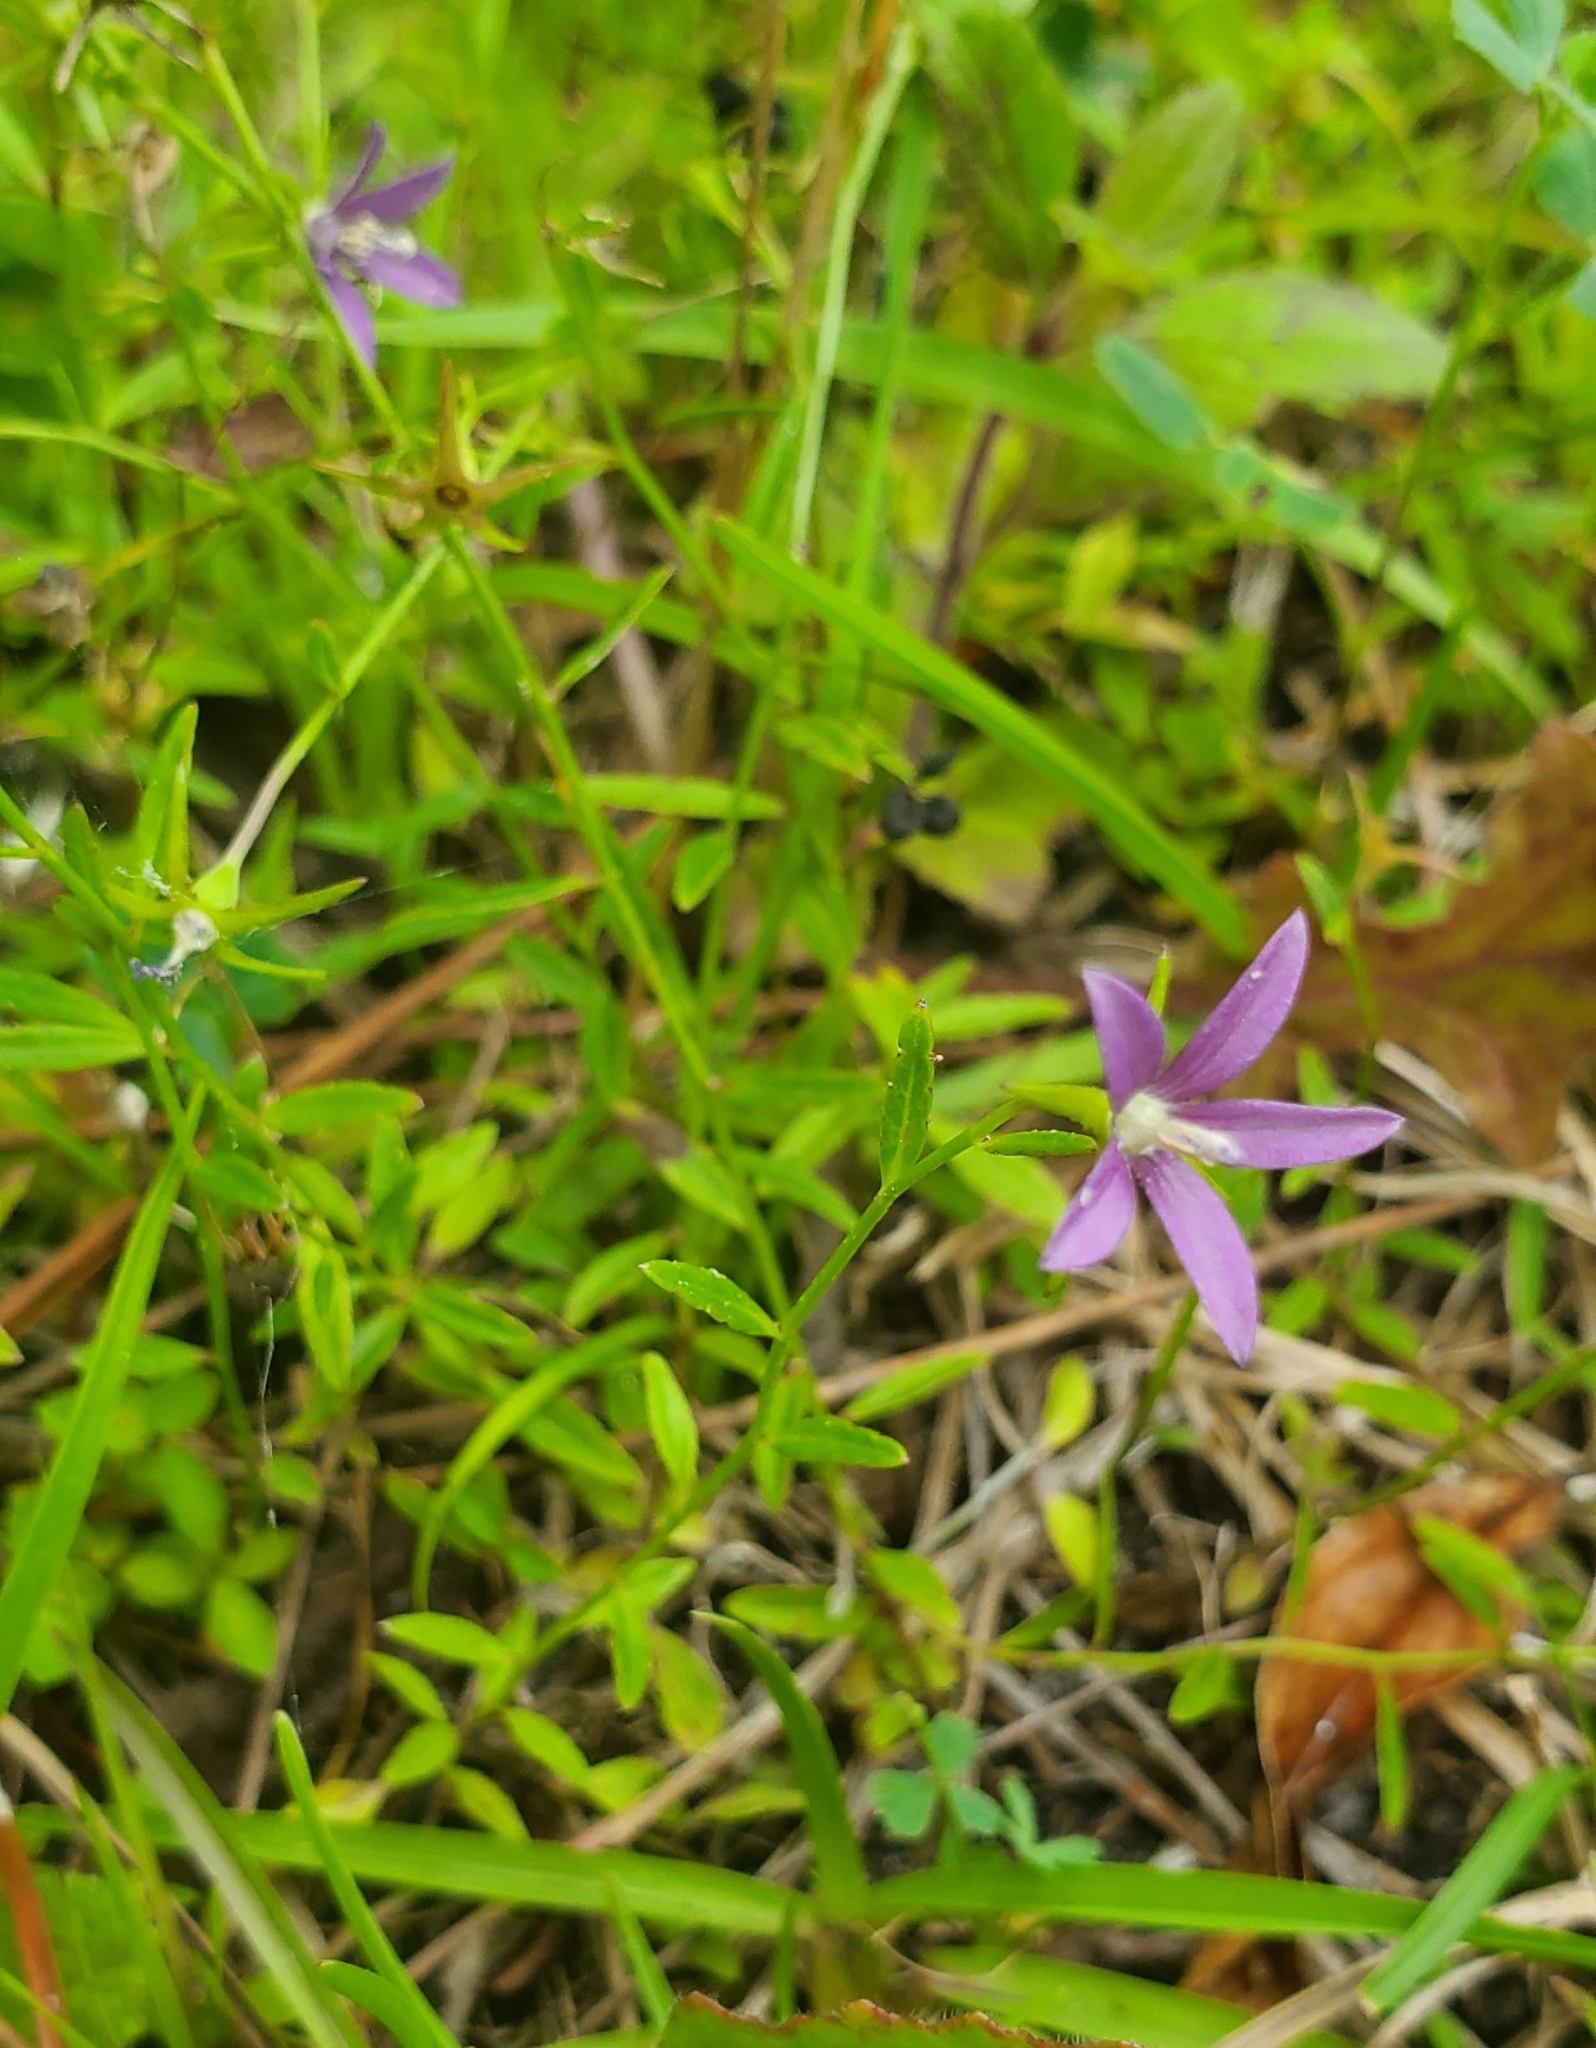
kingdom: Plantae
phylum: Tracheophyta
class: Magnoliopsida
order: Asterales
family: Campanulaceae
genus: Rotanthella
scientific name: Rotanthella floridana
